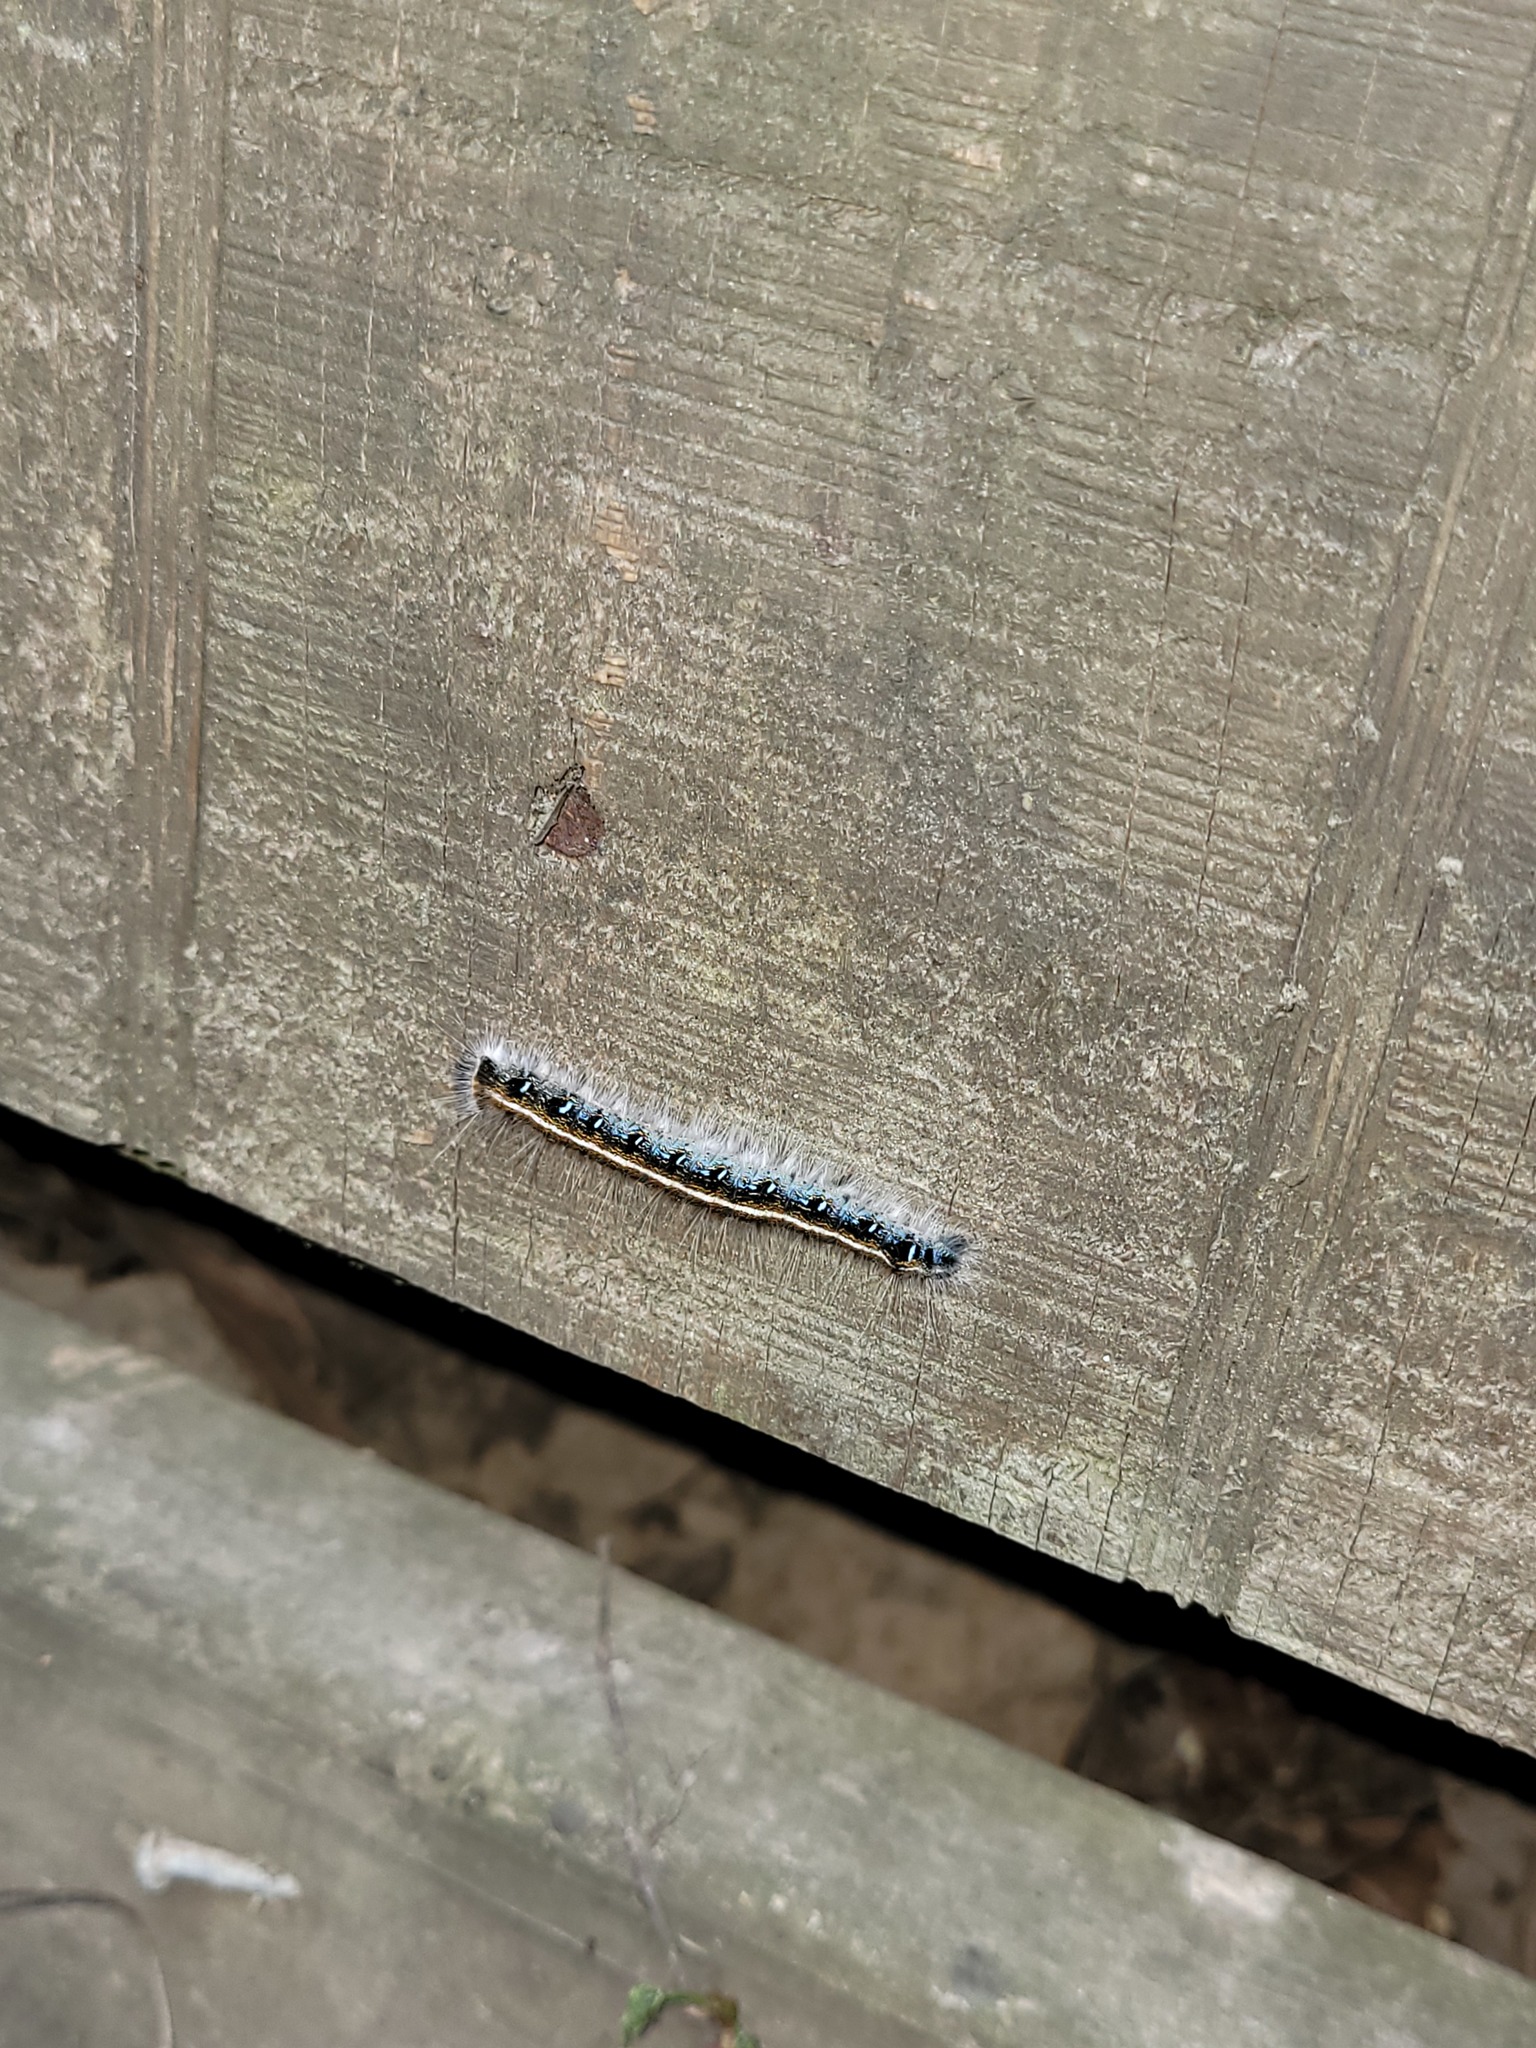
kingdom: Animalia
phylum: Arthropoda
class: Insecta
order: Lepidoptera
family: Lasiocampidae
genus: Malacosoma
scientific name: Malacosoma americana
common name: Eastern tent caterpillar moth
